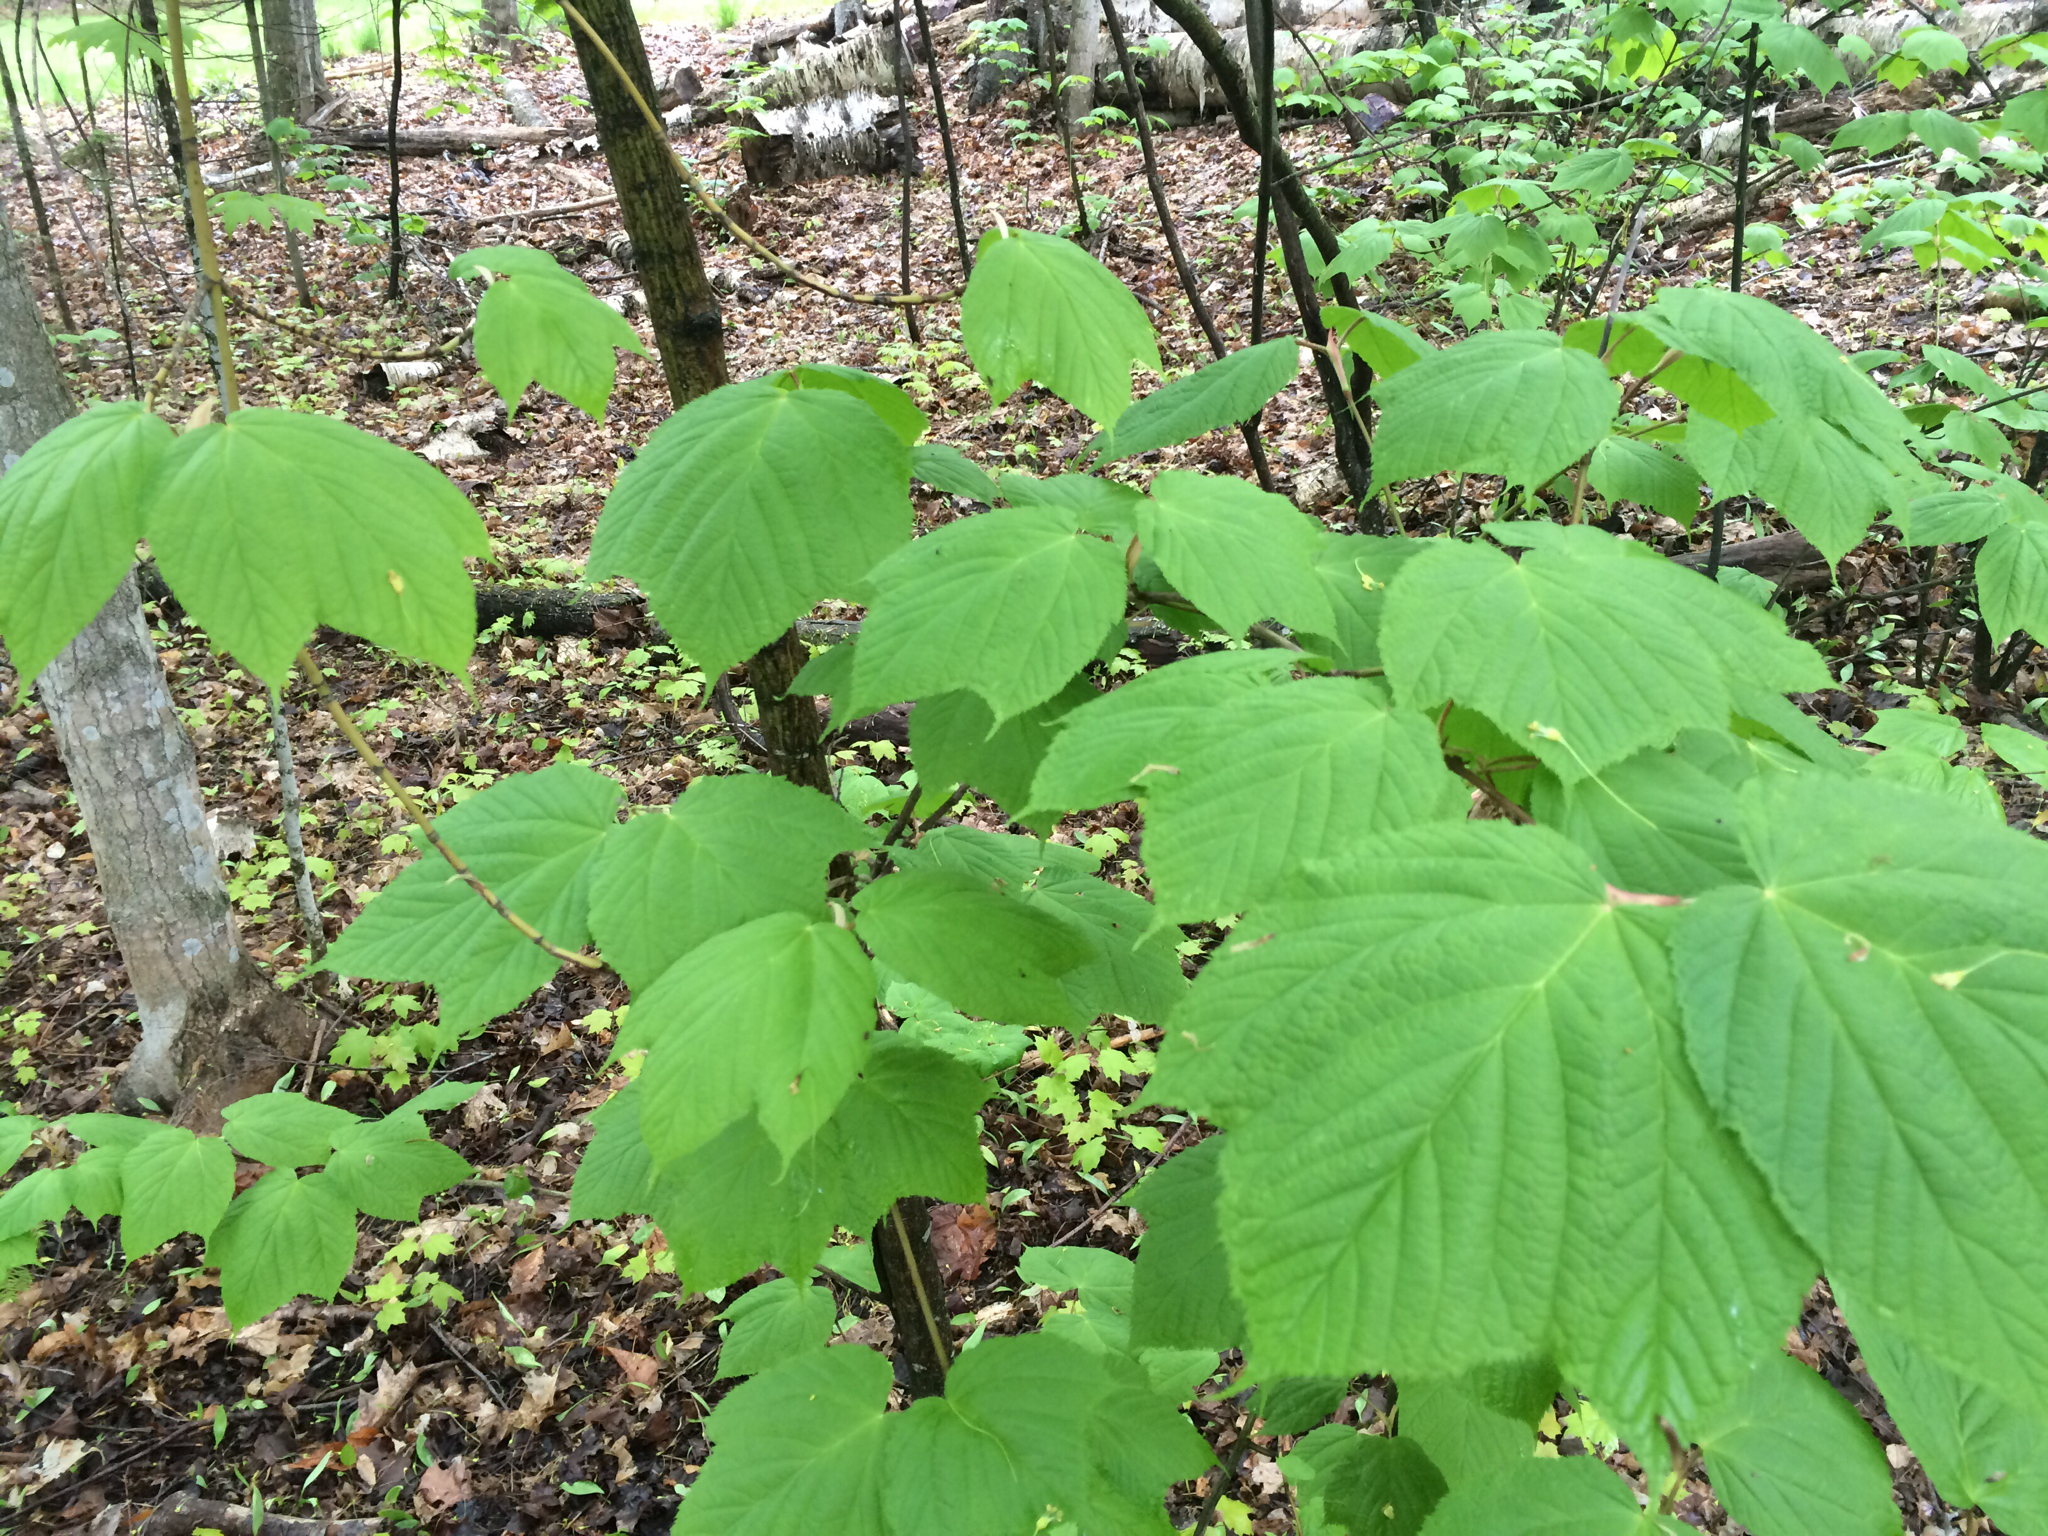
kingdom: Plantae
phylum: Tracheophyta
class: Magnoliopsida
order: Sapindales
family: Sapindaceae
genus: Acer
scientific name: Acer pensylvanicum
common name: Moosewood
